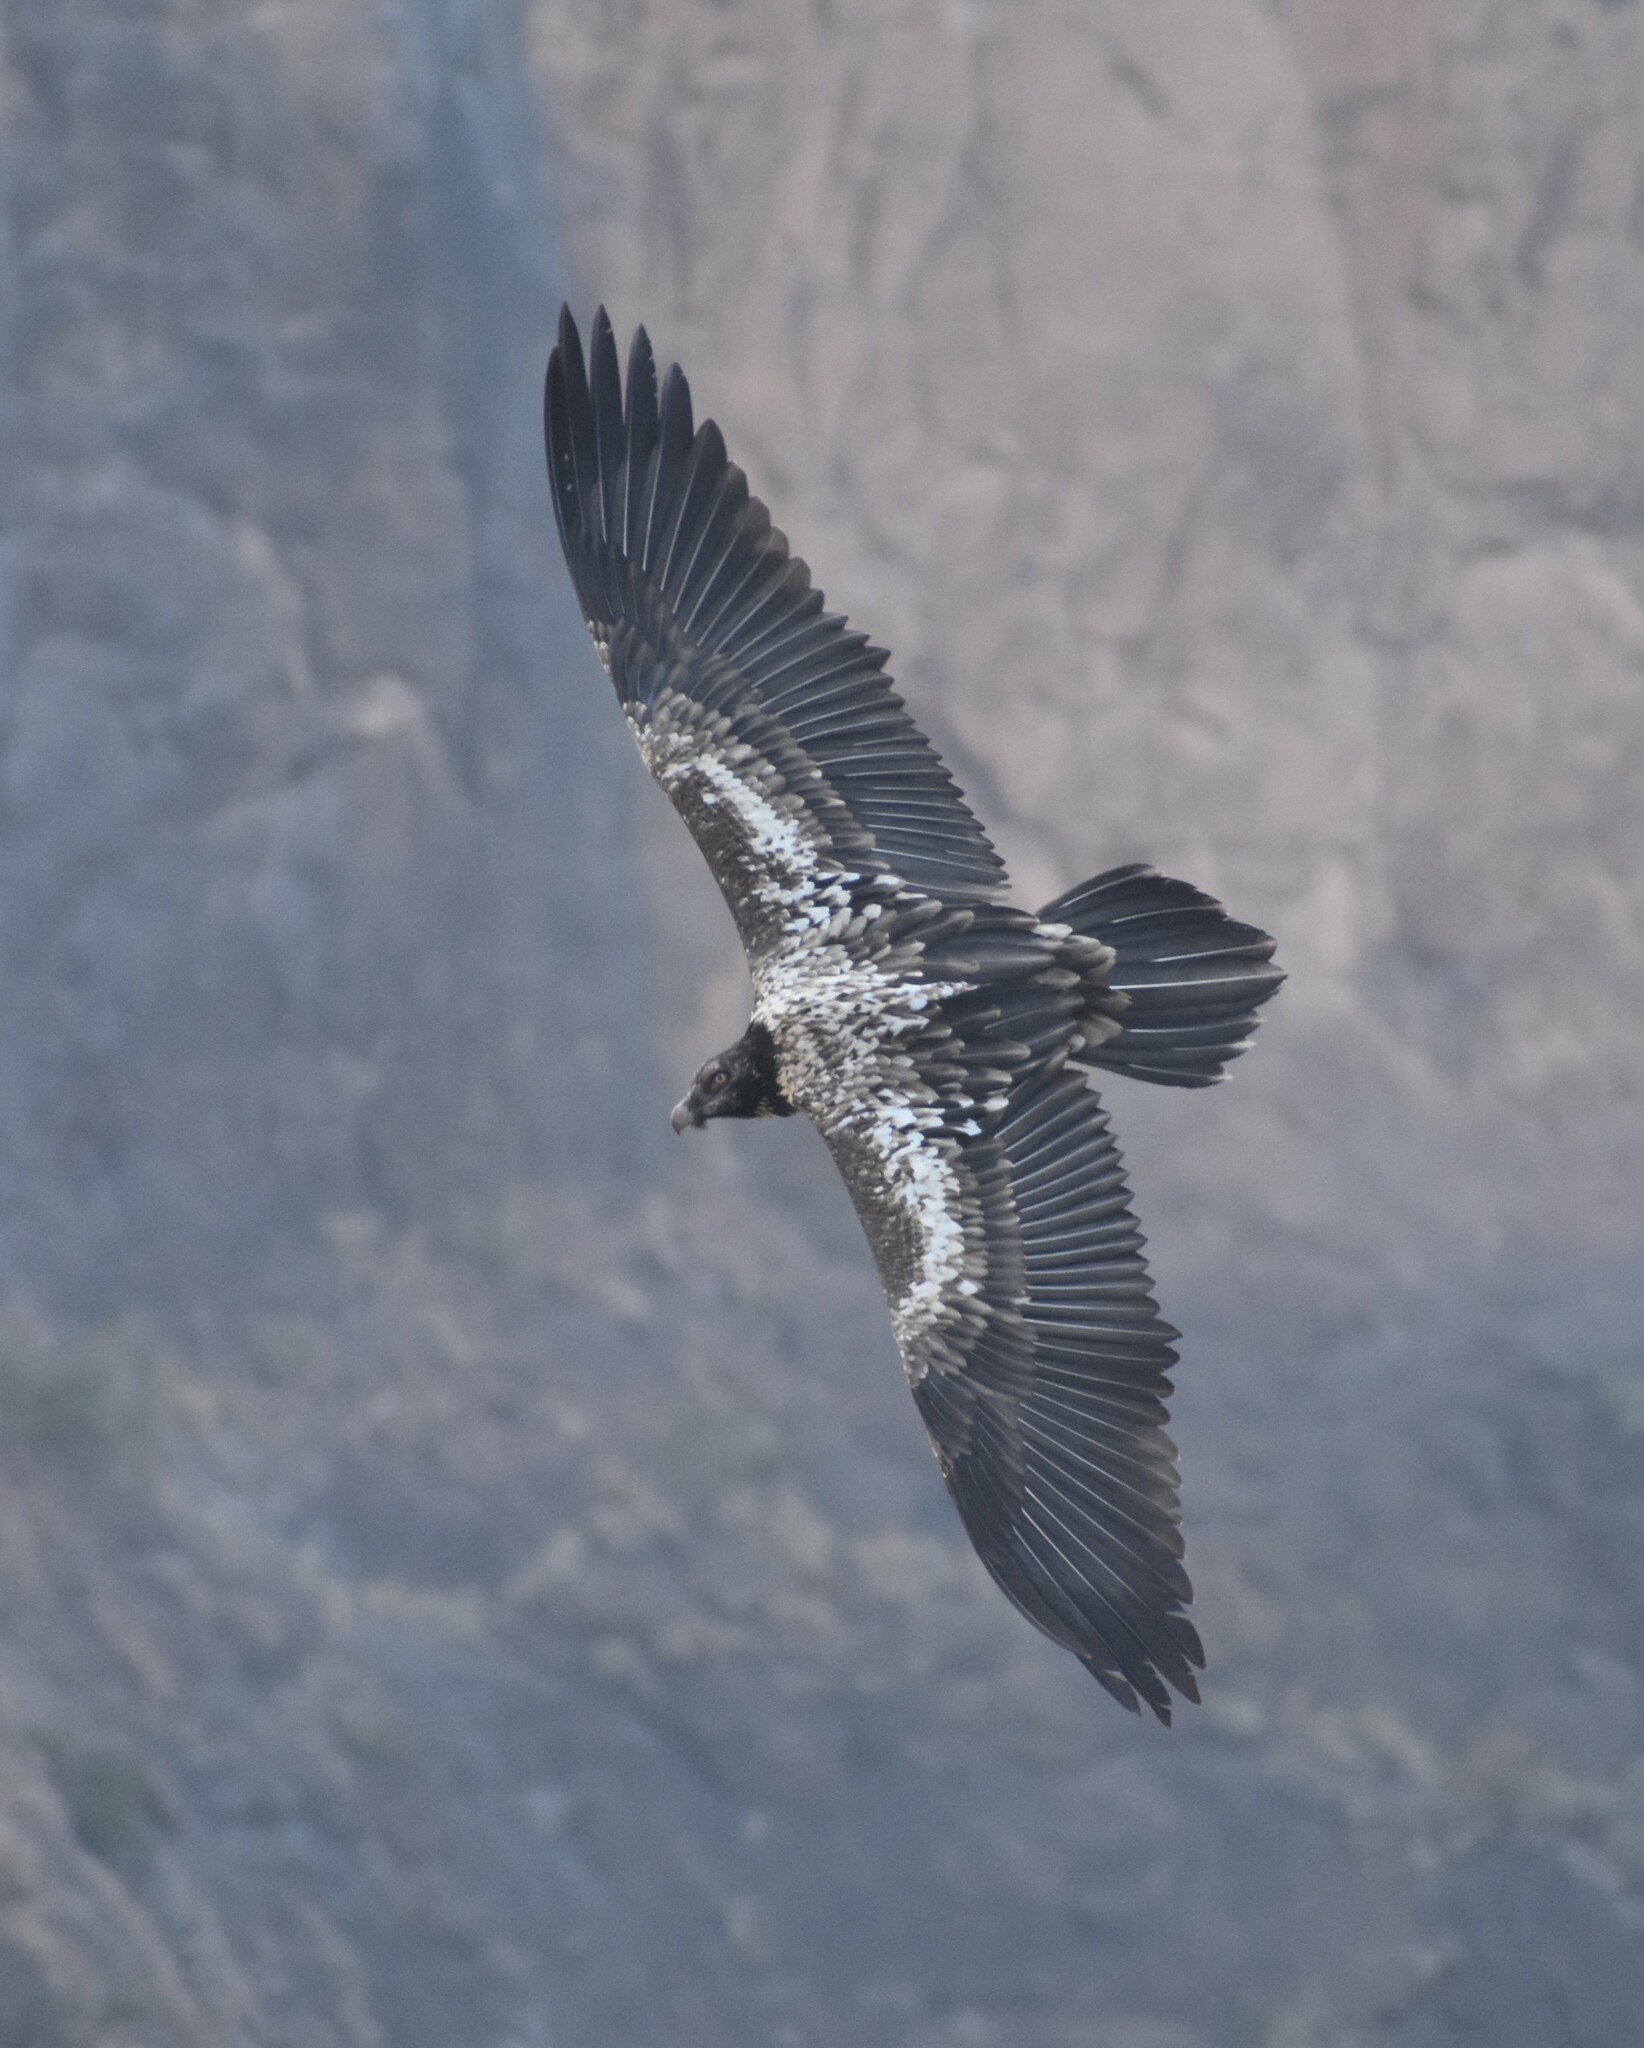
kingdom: Animalia
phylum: Chordata
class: Aves
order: Accipitriformes
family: Accipitridae
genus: Gypaetus
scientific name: Gypaetus barbatus
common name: Bearded vulture
